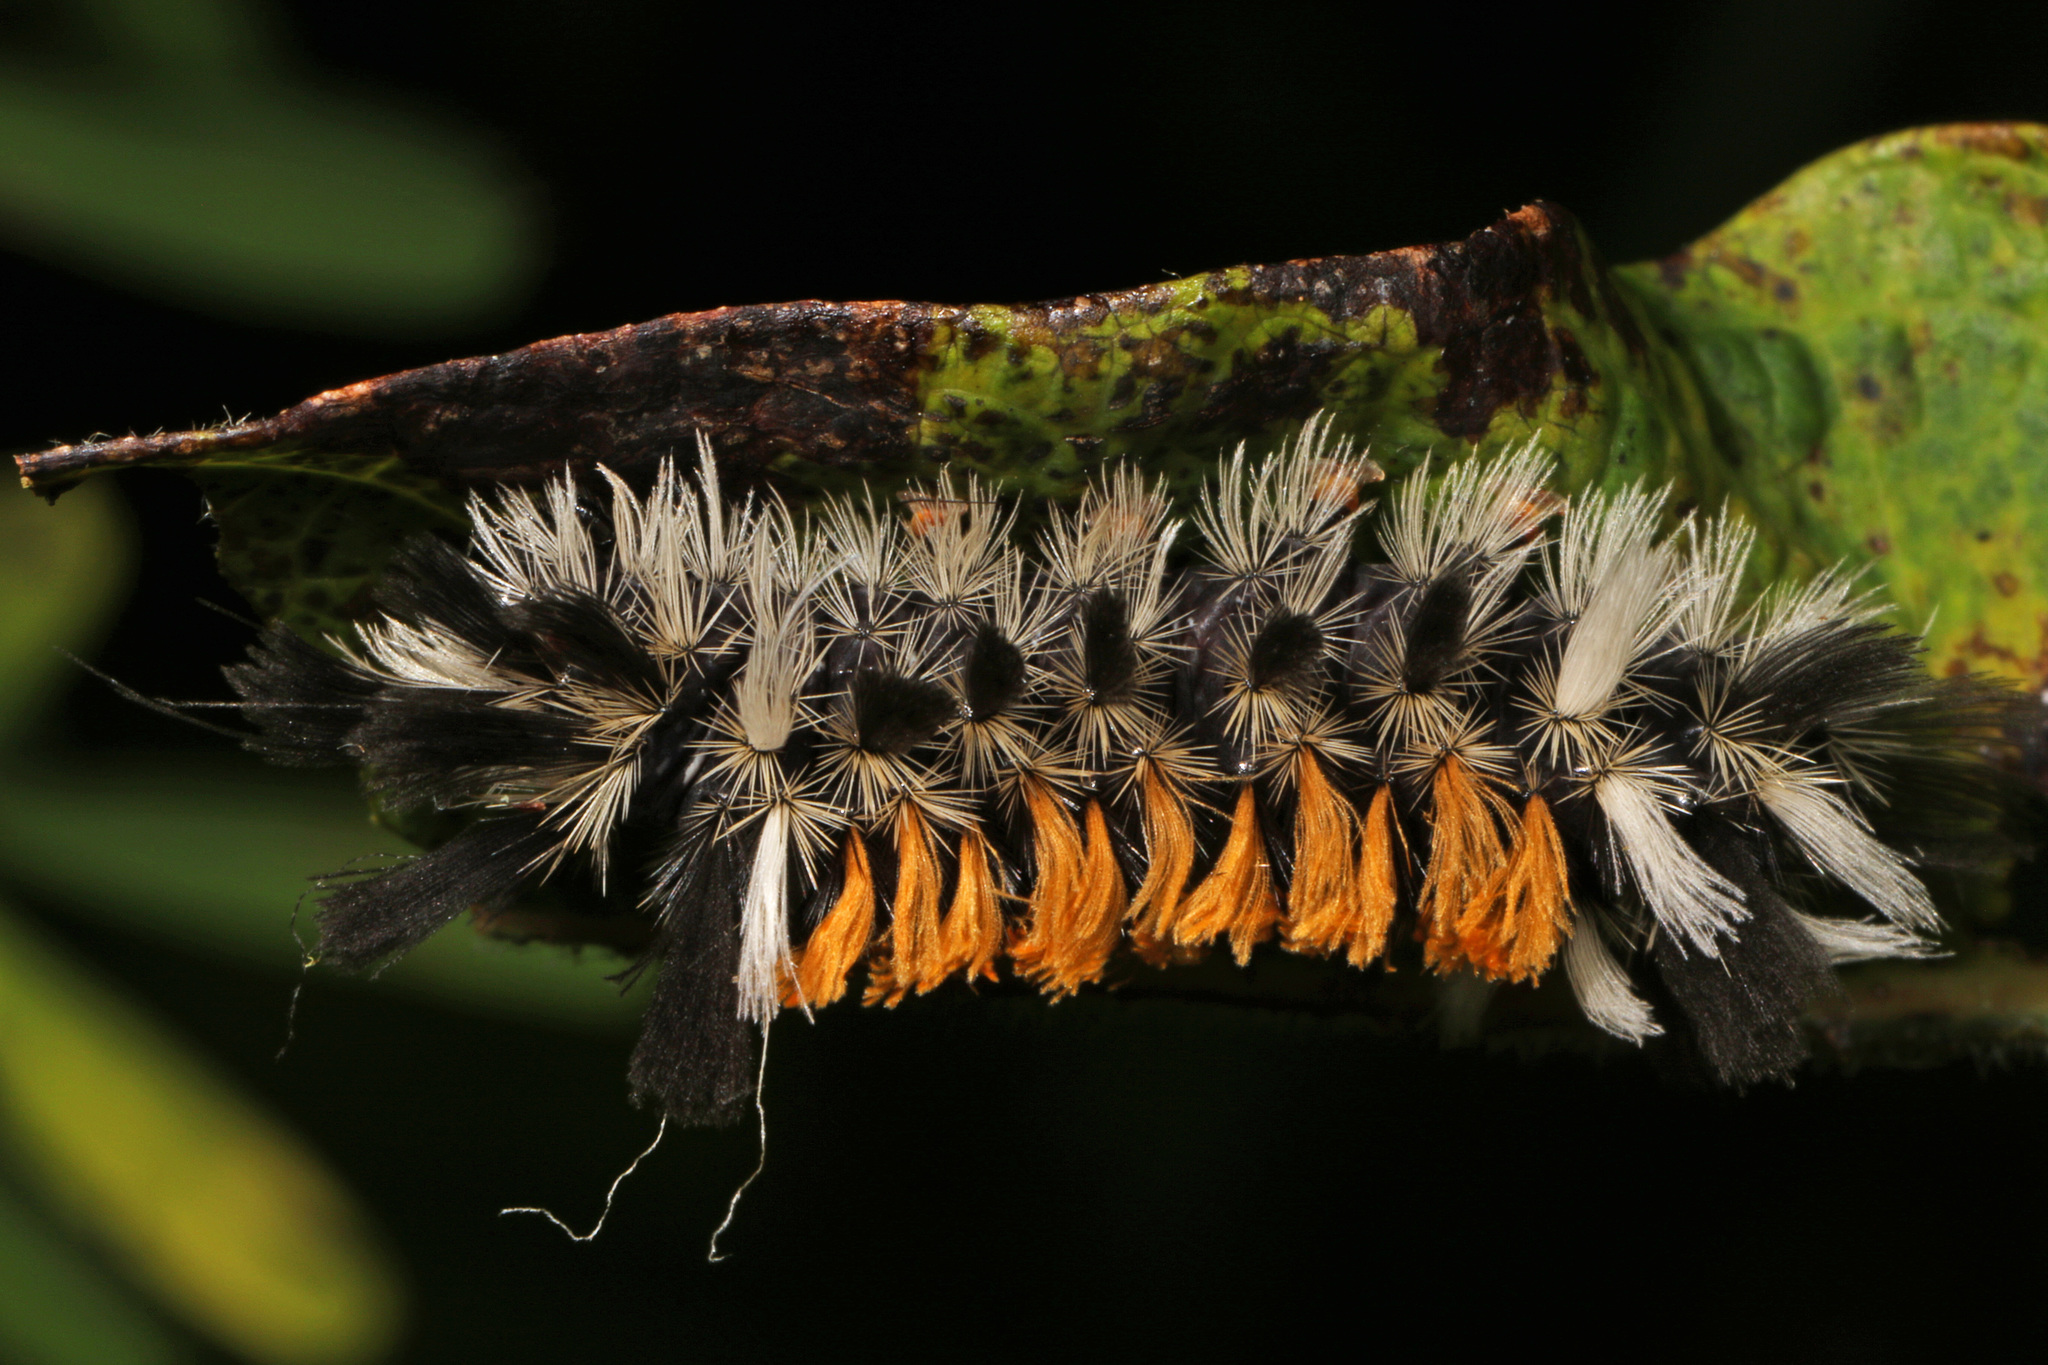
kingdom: Animalia
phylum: Arthropoda
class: Insecta
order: Lepidoptera
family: Erebidae
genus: Euchaetes
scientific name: Euchaetes egle
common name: Milkweed tussock moth
